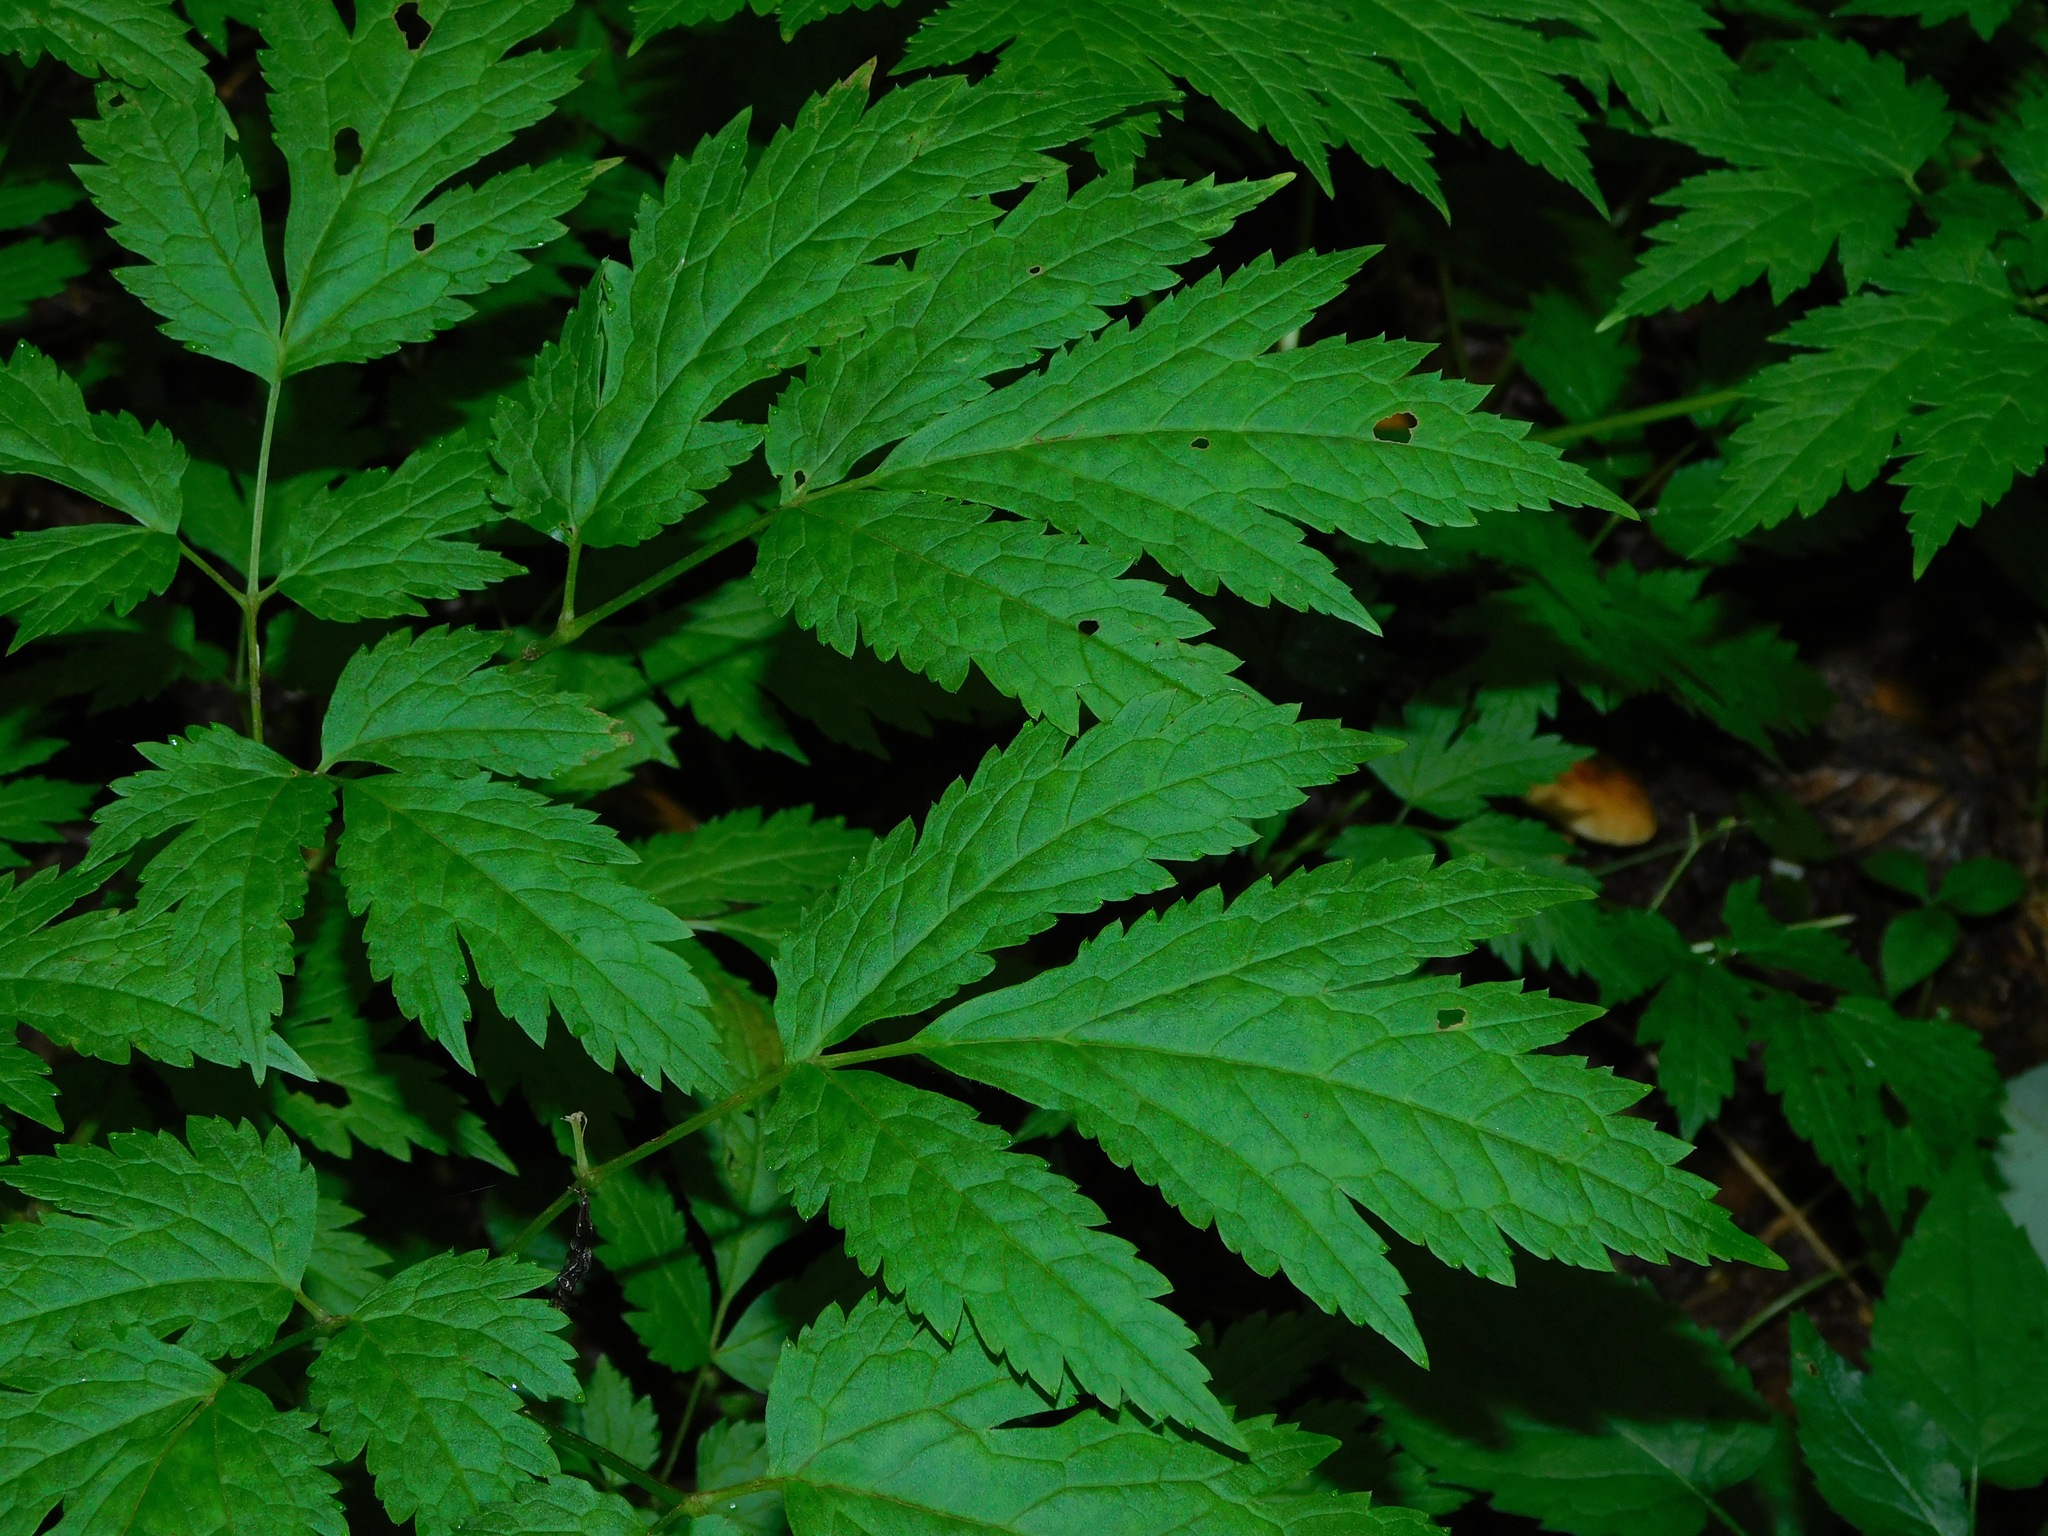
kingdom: Plantae
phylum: Tracheophyta
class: Magnoliopsida
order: Ranunculales
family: Ranunculaceae
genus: Actaea
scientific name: Actaea podocarpa
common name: American bugbane
